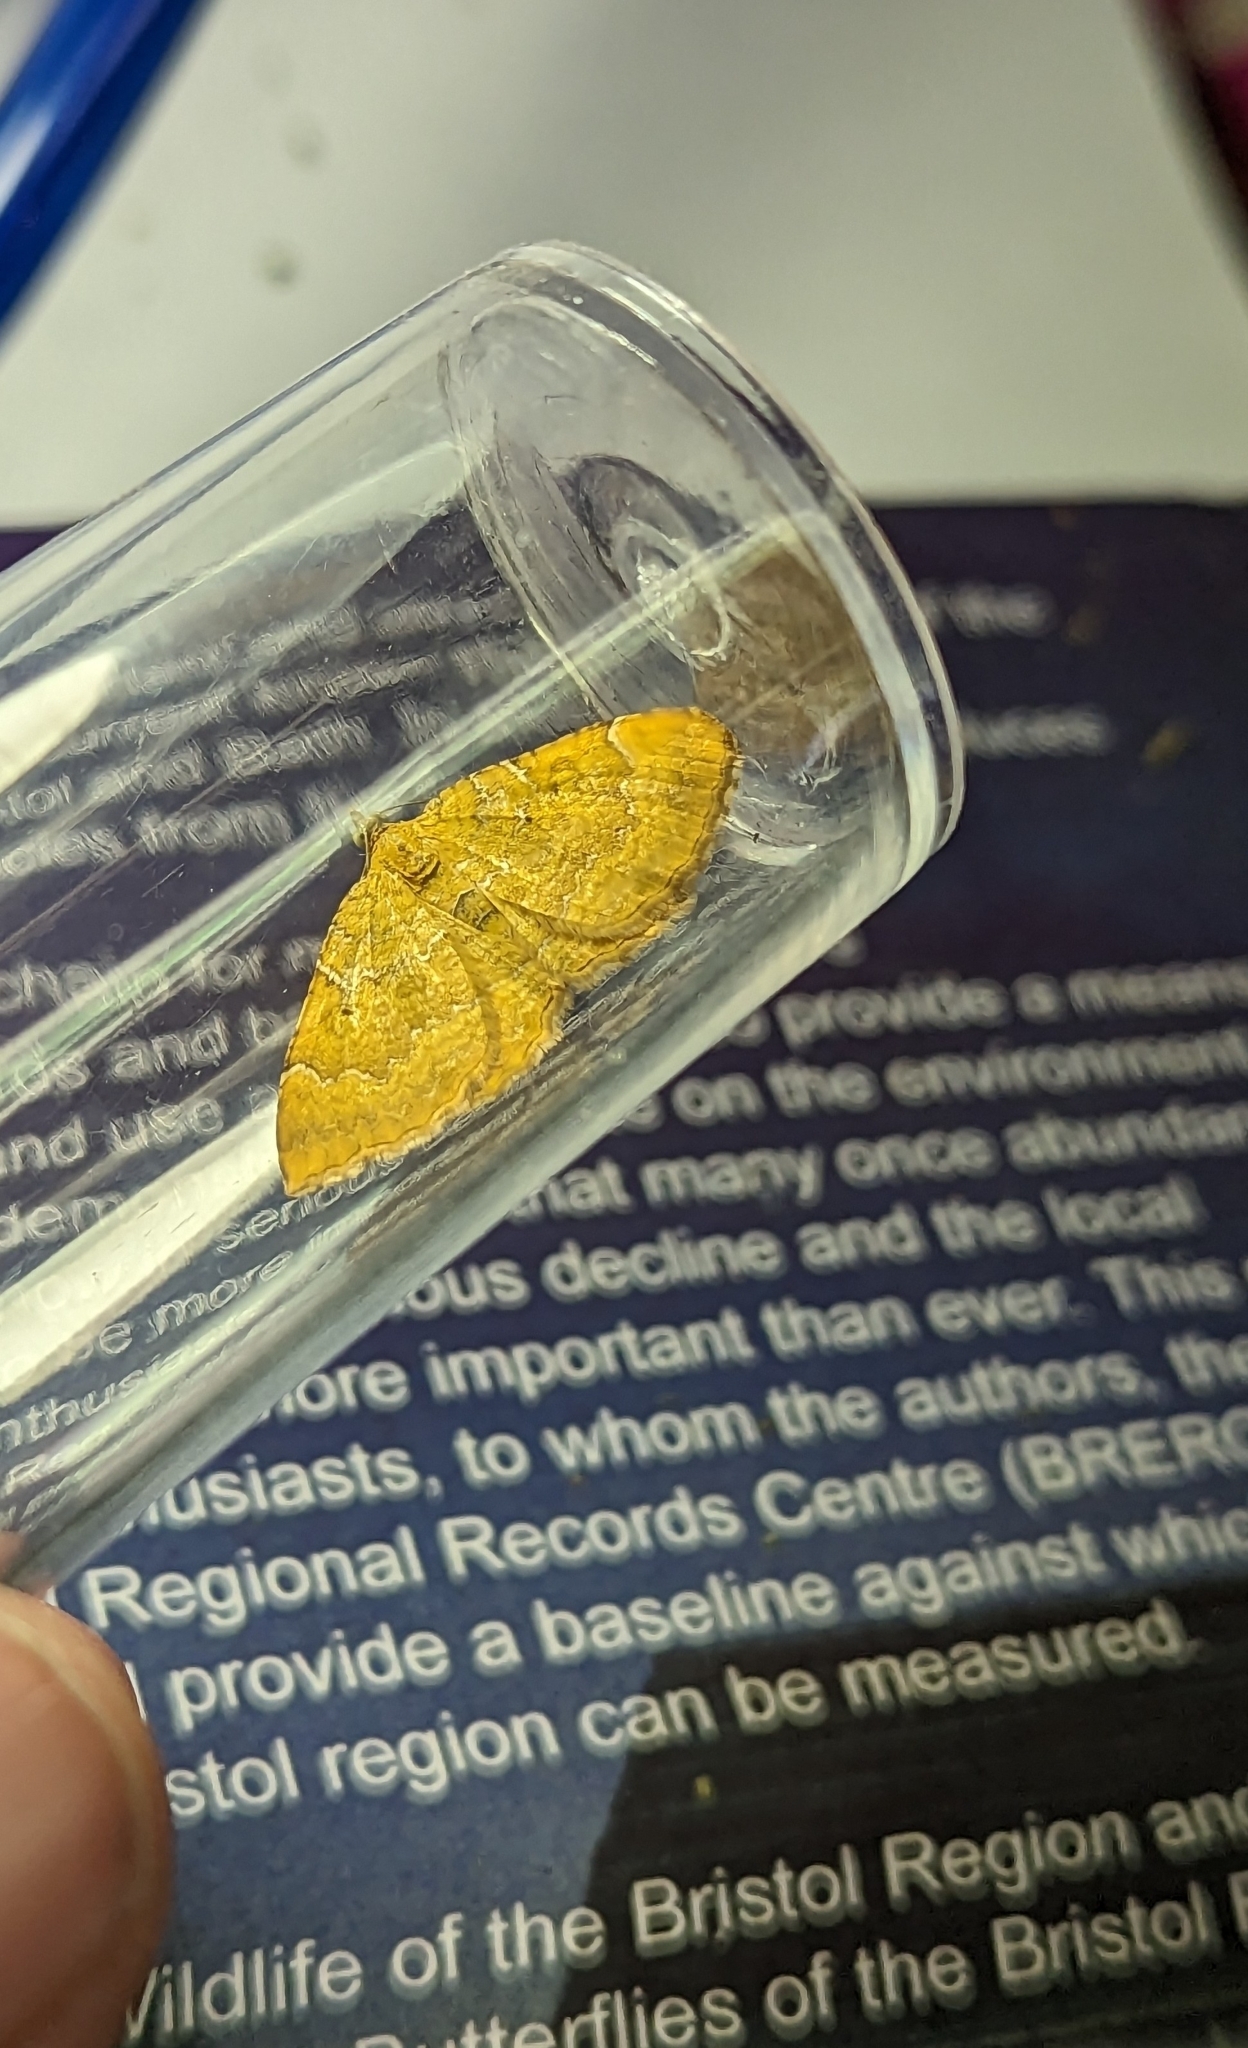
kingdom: Animalia
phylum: Arthropoda
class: Insecta
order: Lepidoptera
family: Geometridae
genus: Camptogramma
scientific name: Camptogramma bilineata
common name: Yellow shell
